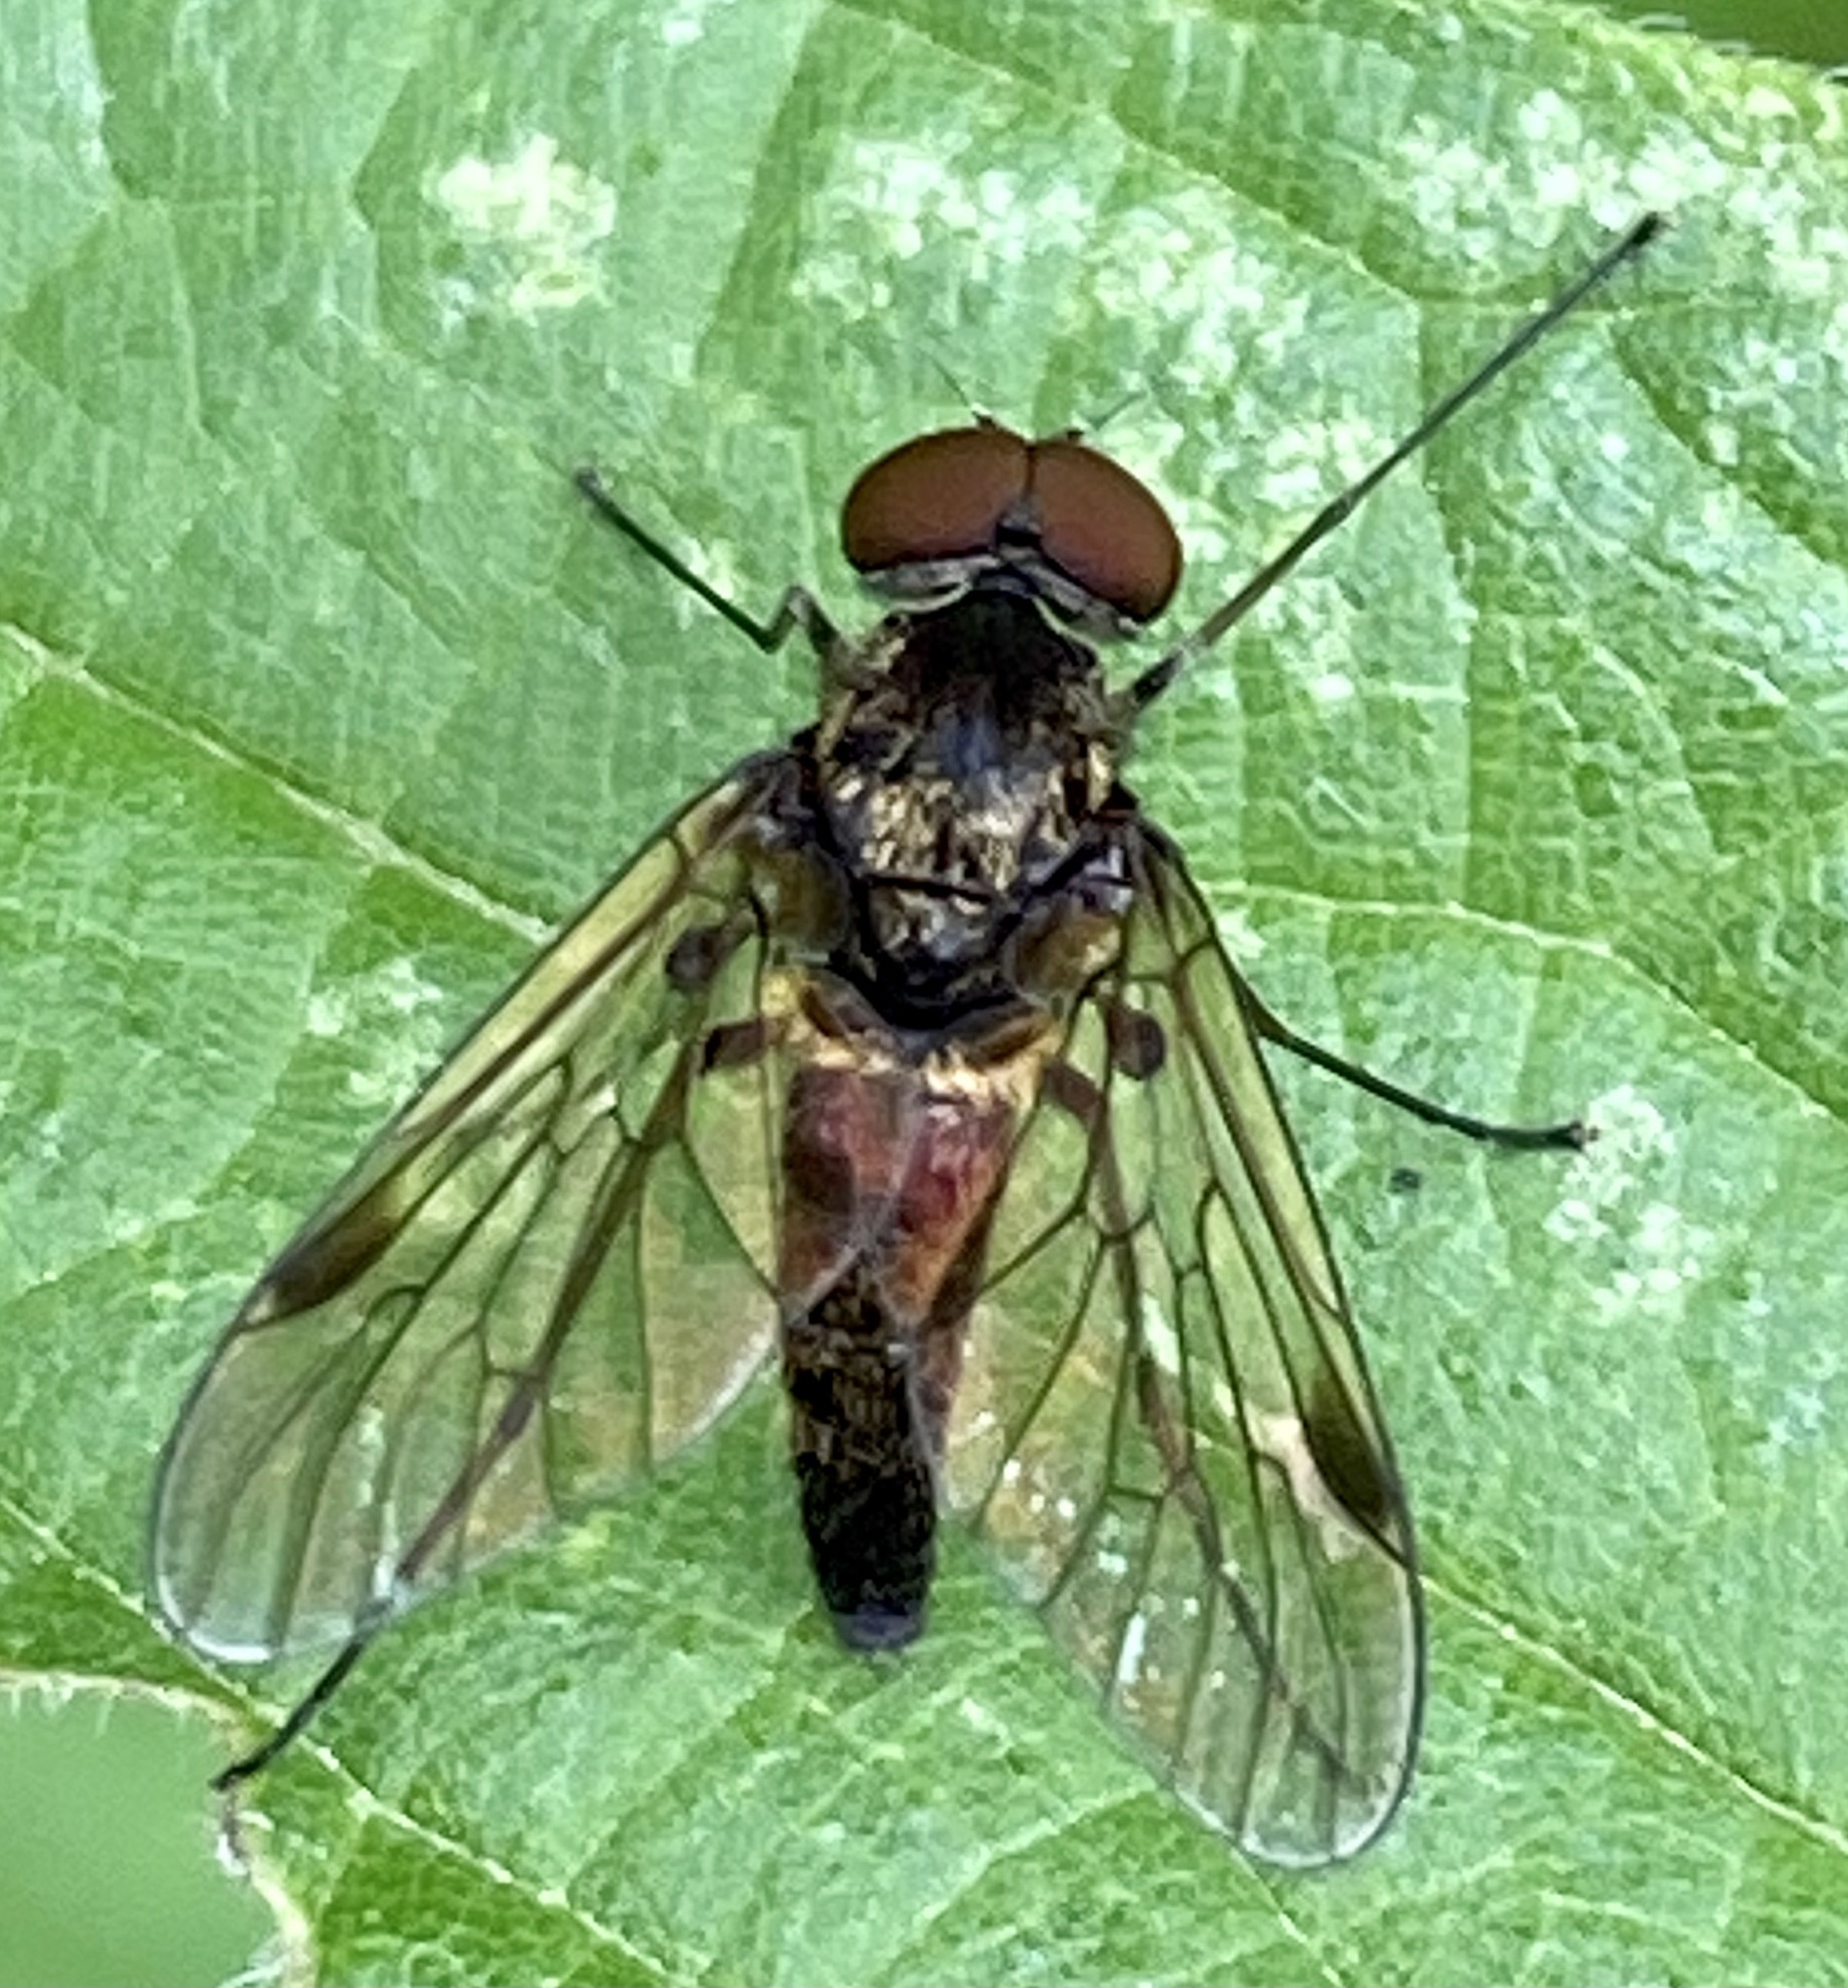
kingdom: Animalia
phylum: Arthropoda
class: Insecta
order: Diptera
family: Rhagionidae
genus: Chrysopilus
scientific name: Chrysopilus cristatus
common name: Black snipefly
